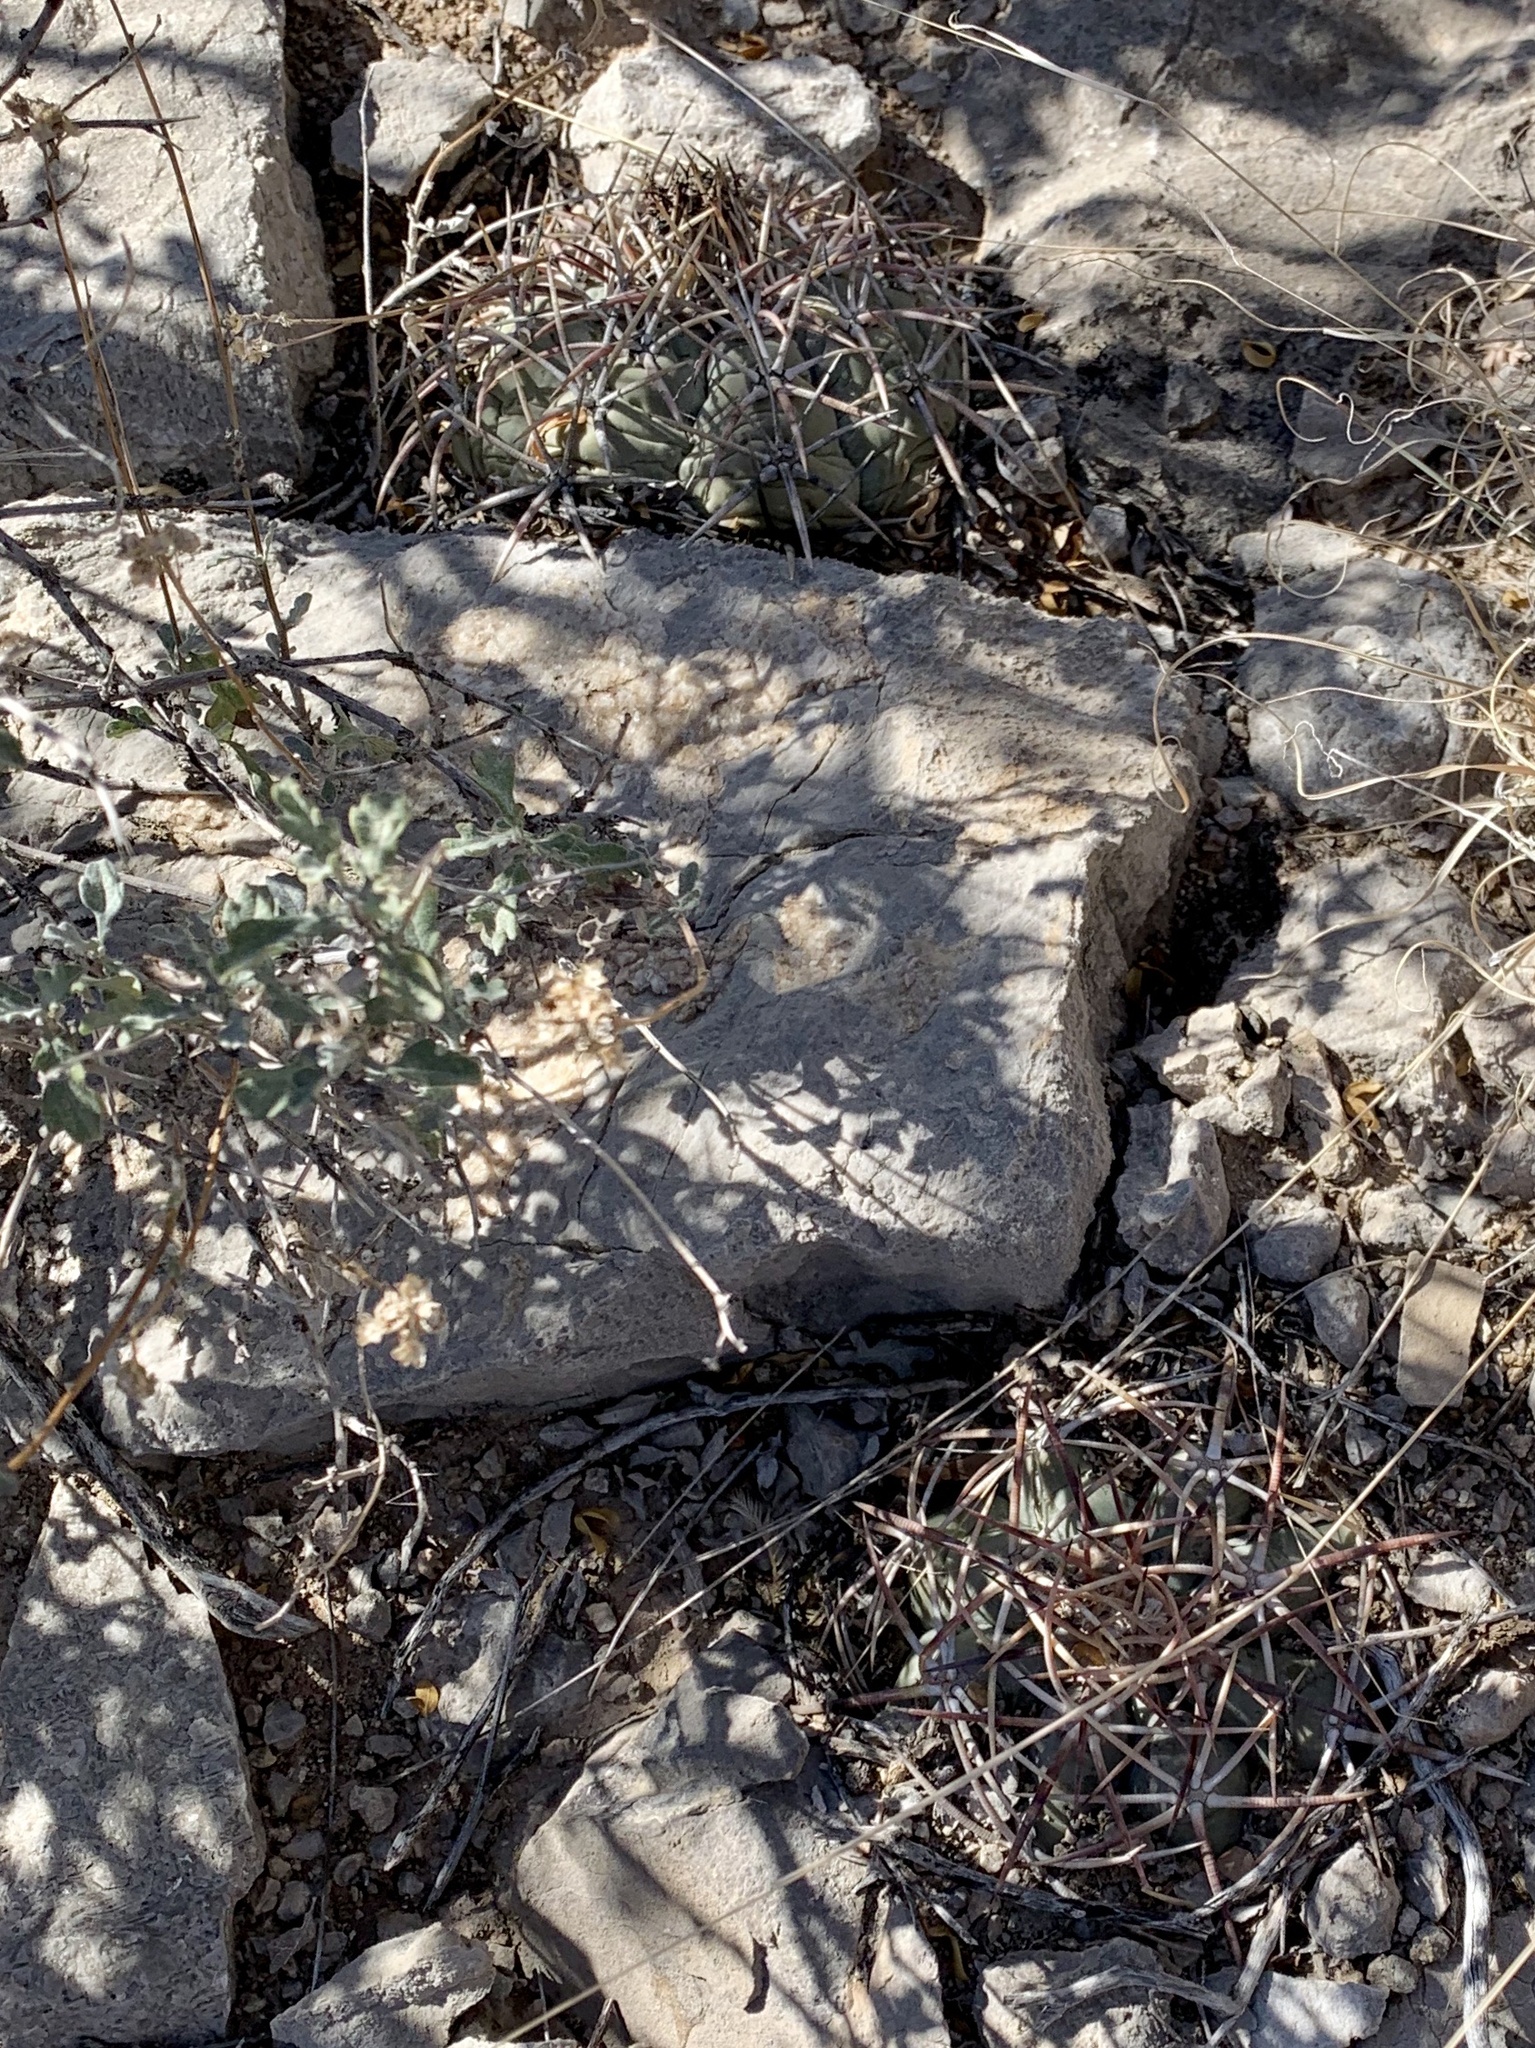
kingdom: Plantae
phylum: Tracheophyta
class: Magnoliopsida
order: Caryophyllales
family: Cactaceae
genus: Echinocactus
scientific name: Echinocactus horizonthalonius
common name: Devilshead
